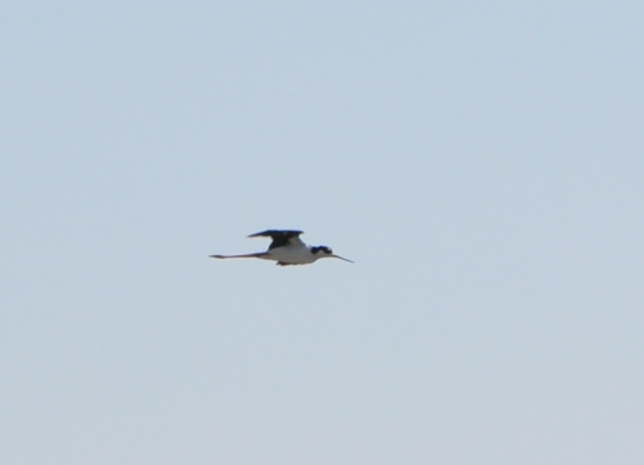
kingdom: Animalia
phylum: Chordata
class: Aves
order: Charadriiformes
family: Recurvirostridae
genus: Himantopus
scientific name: Himantopus mexicanus
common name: Black-necked stilt
